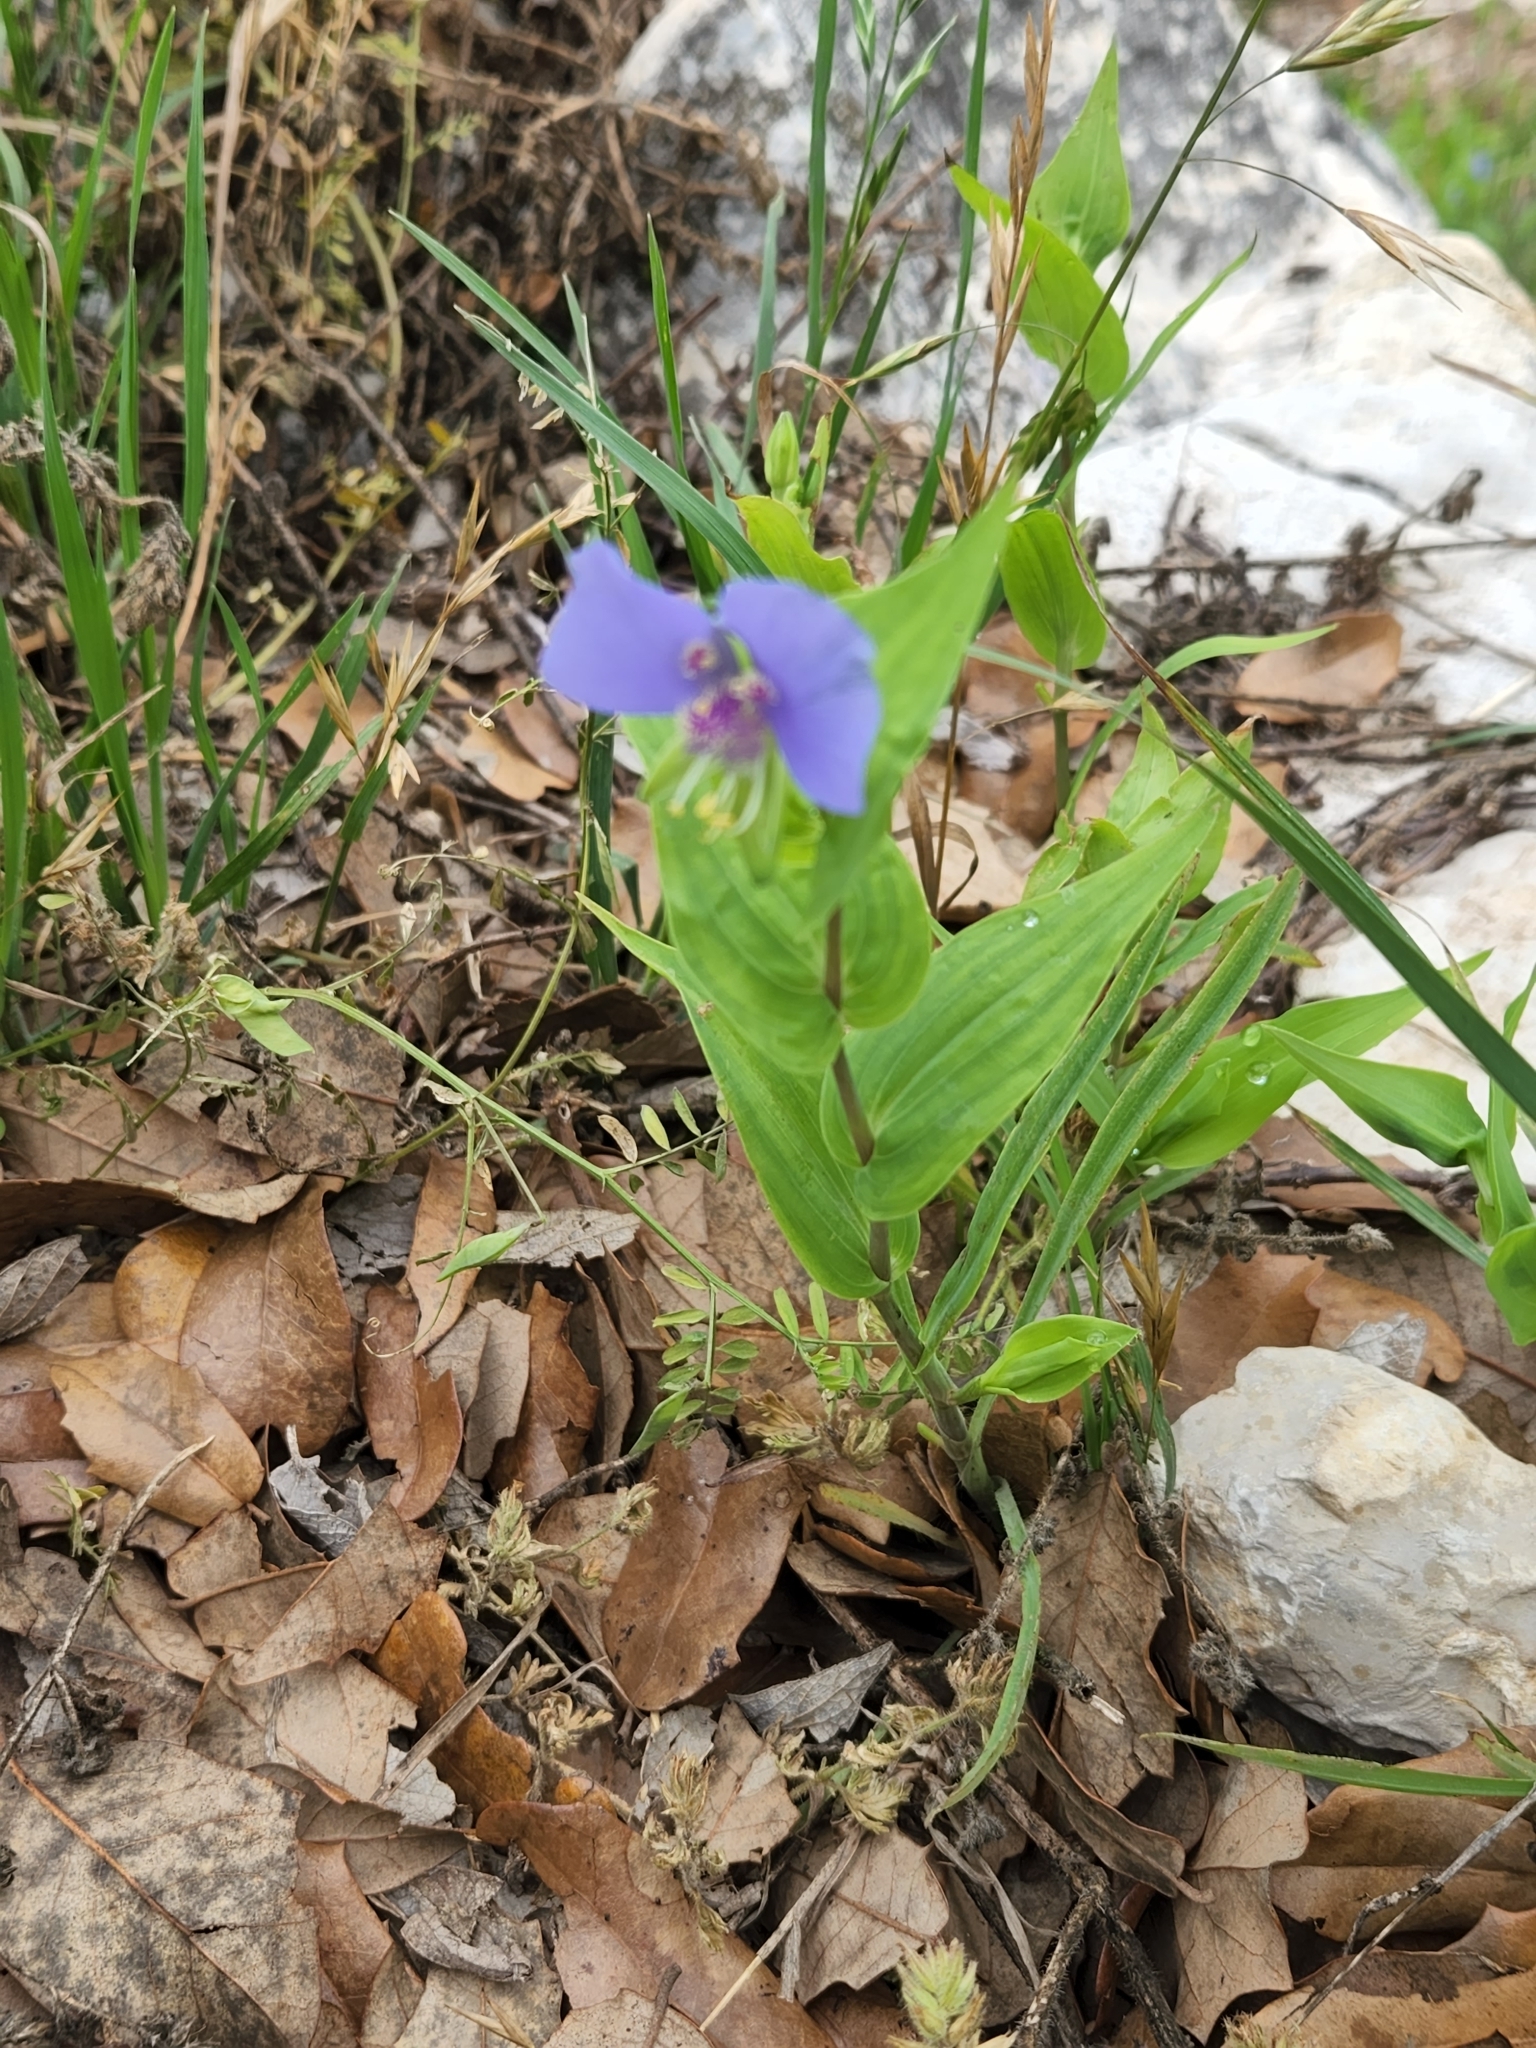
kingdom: Plantae
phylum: Tracheophyta
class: Liliopsida
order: Commelinales
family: Commelinaceae
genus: Tinantia
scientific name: Tinantia anomala
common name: False dayflower
